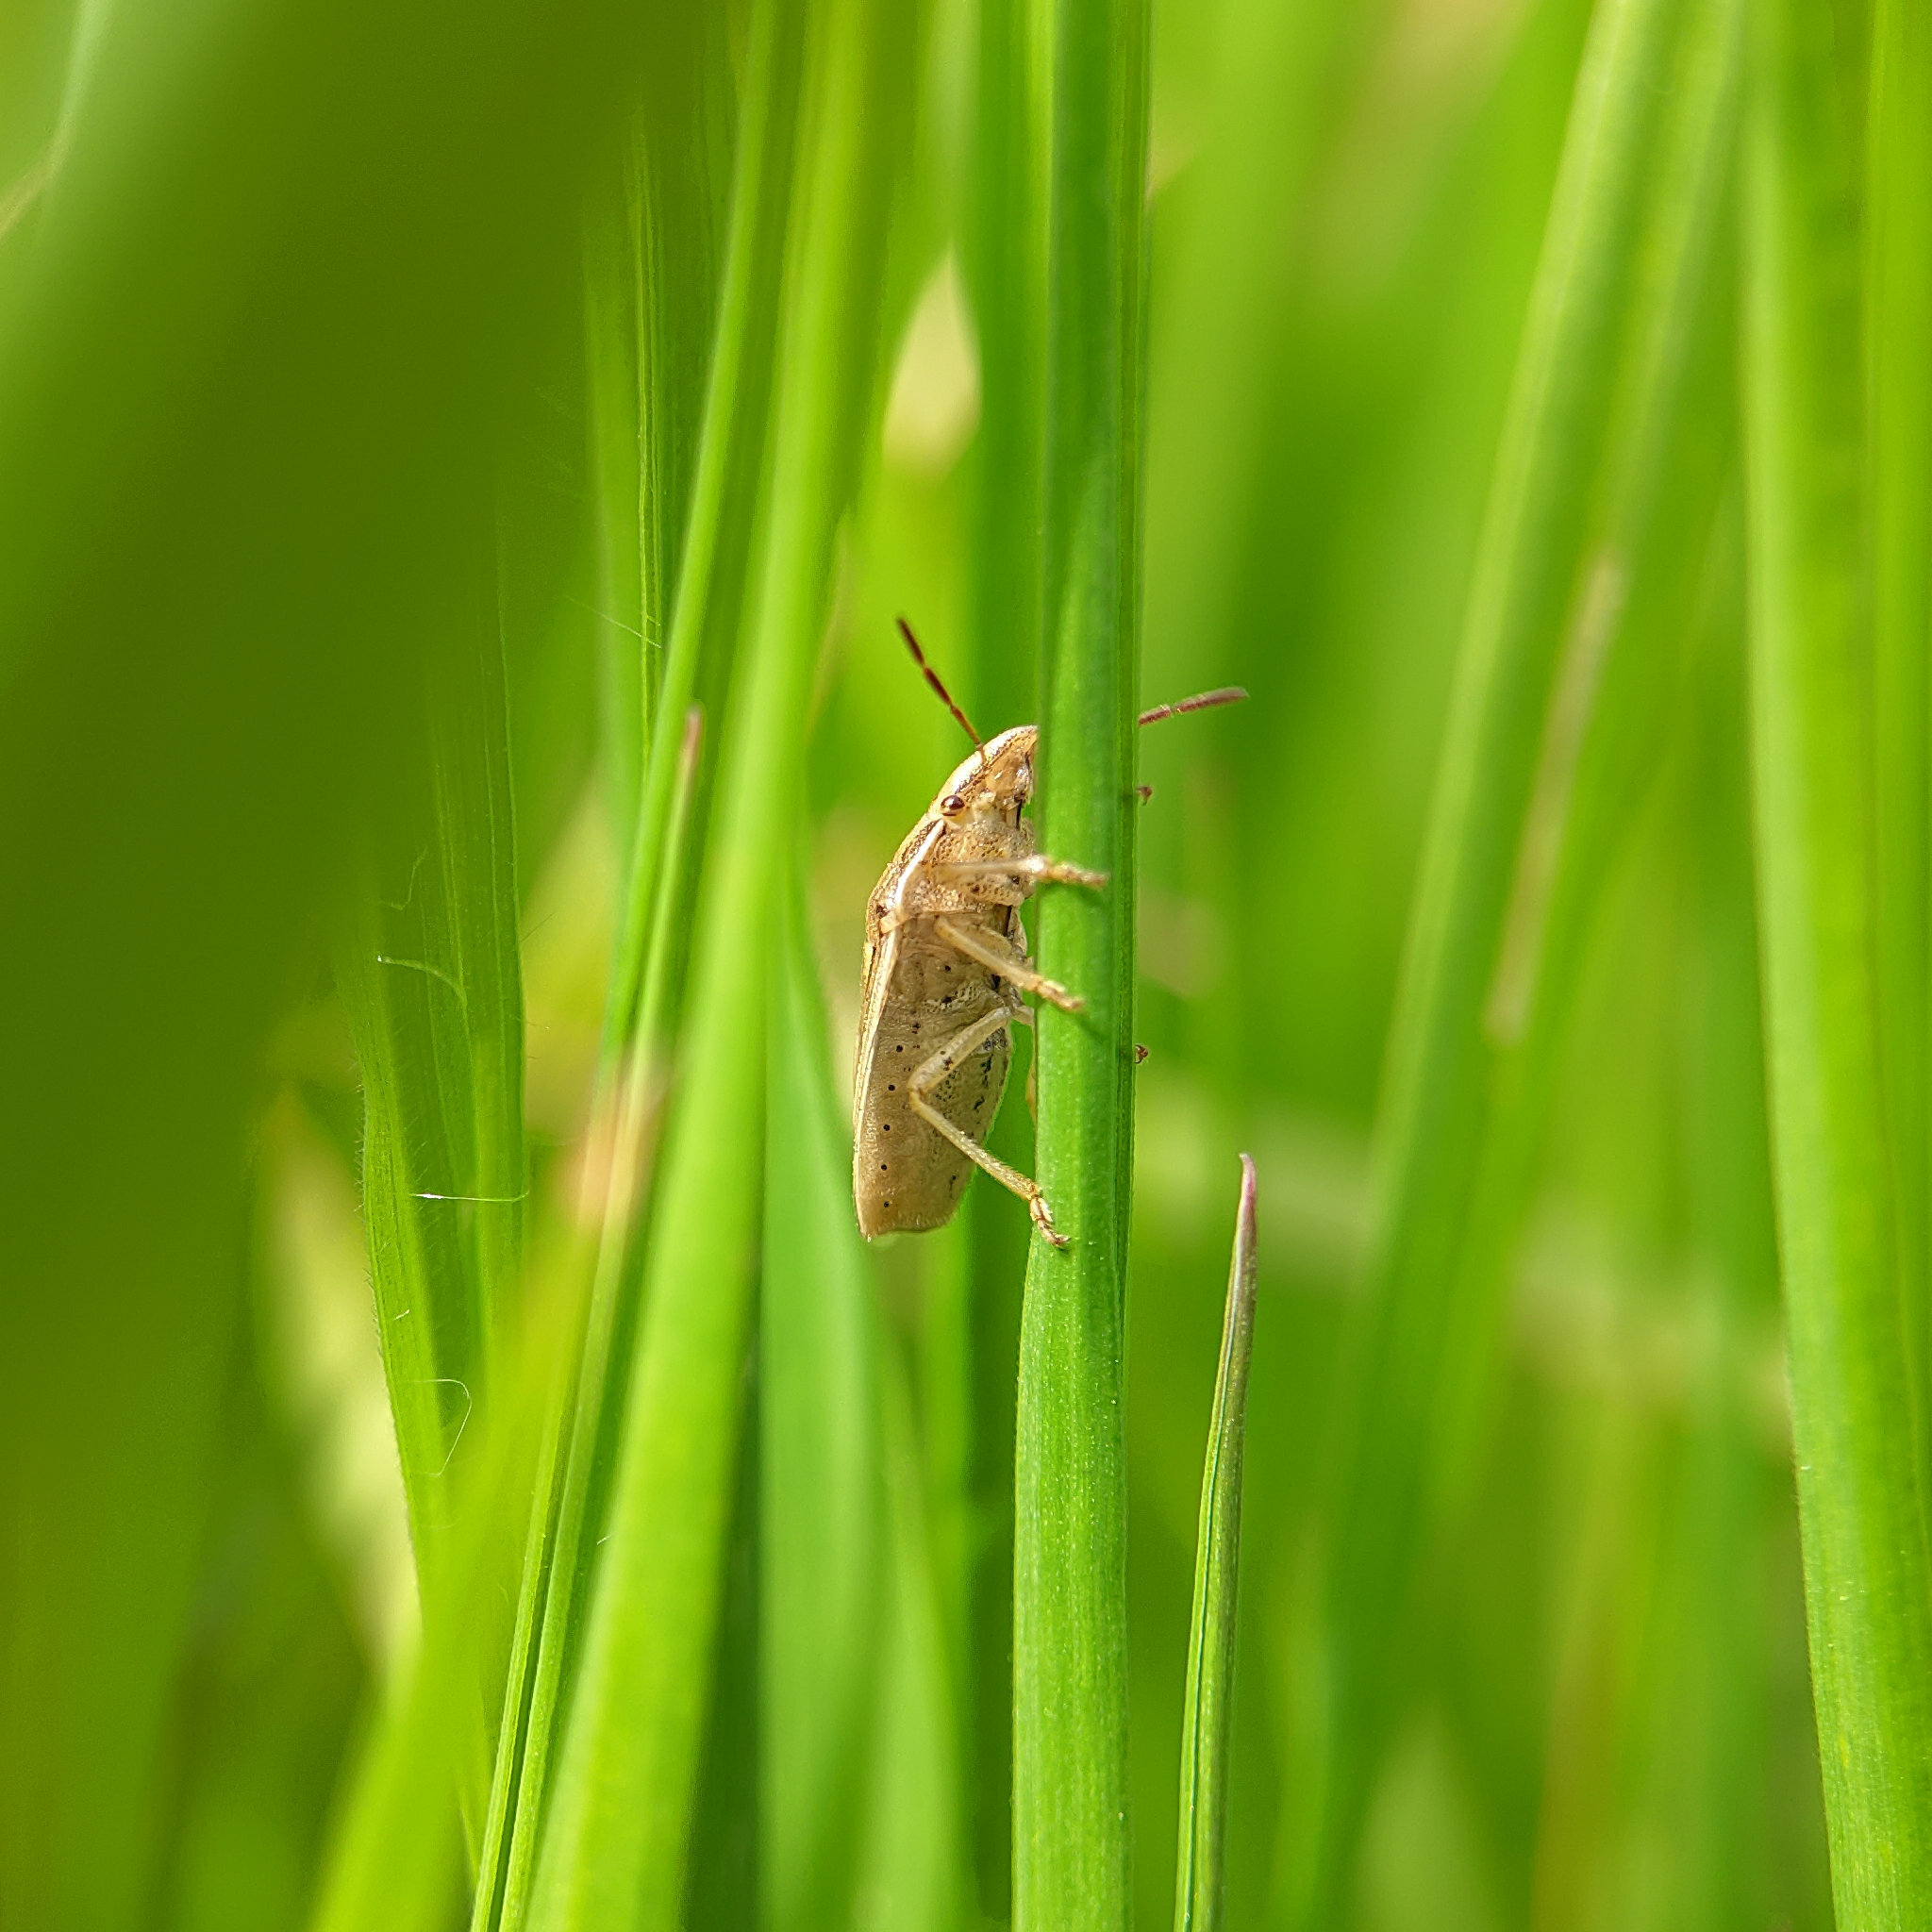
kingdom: Animalia
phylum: Arthropoda
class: Insecta
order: Hemiptera
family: Pentatomidae
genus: Aelia
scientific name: Aelia acuminata
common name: Bishop's mitre
